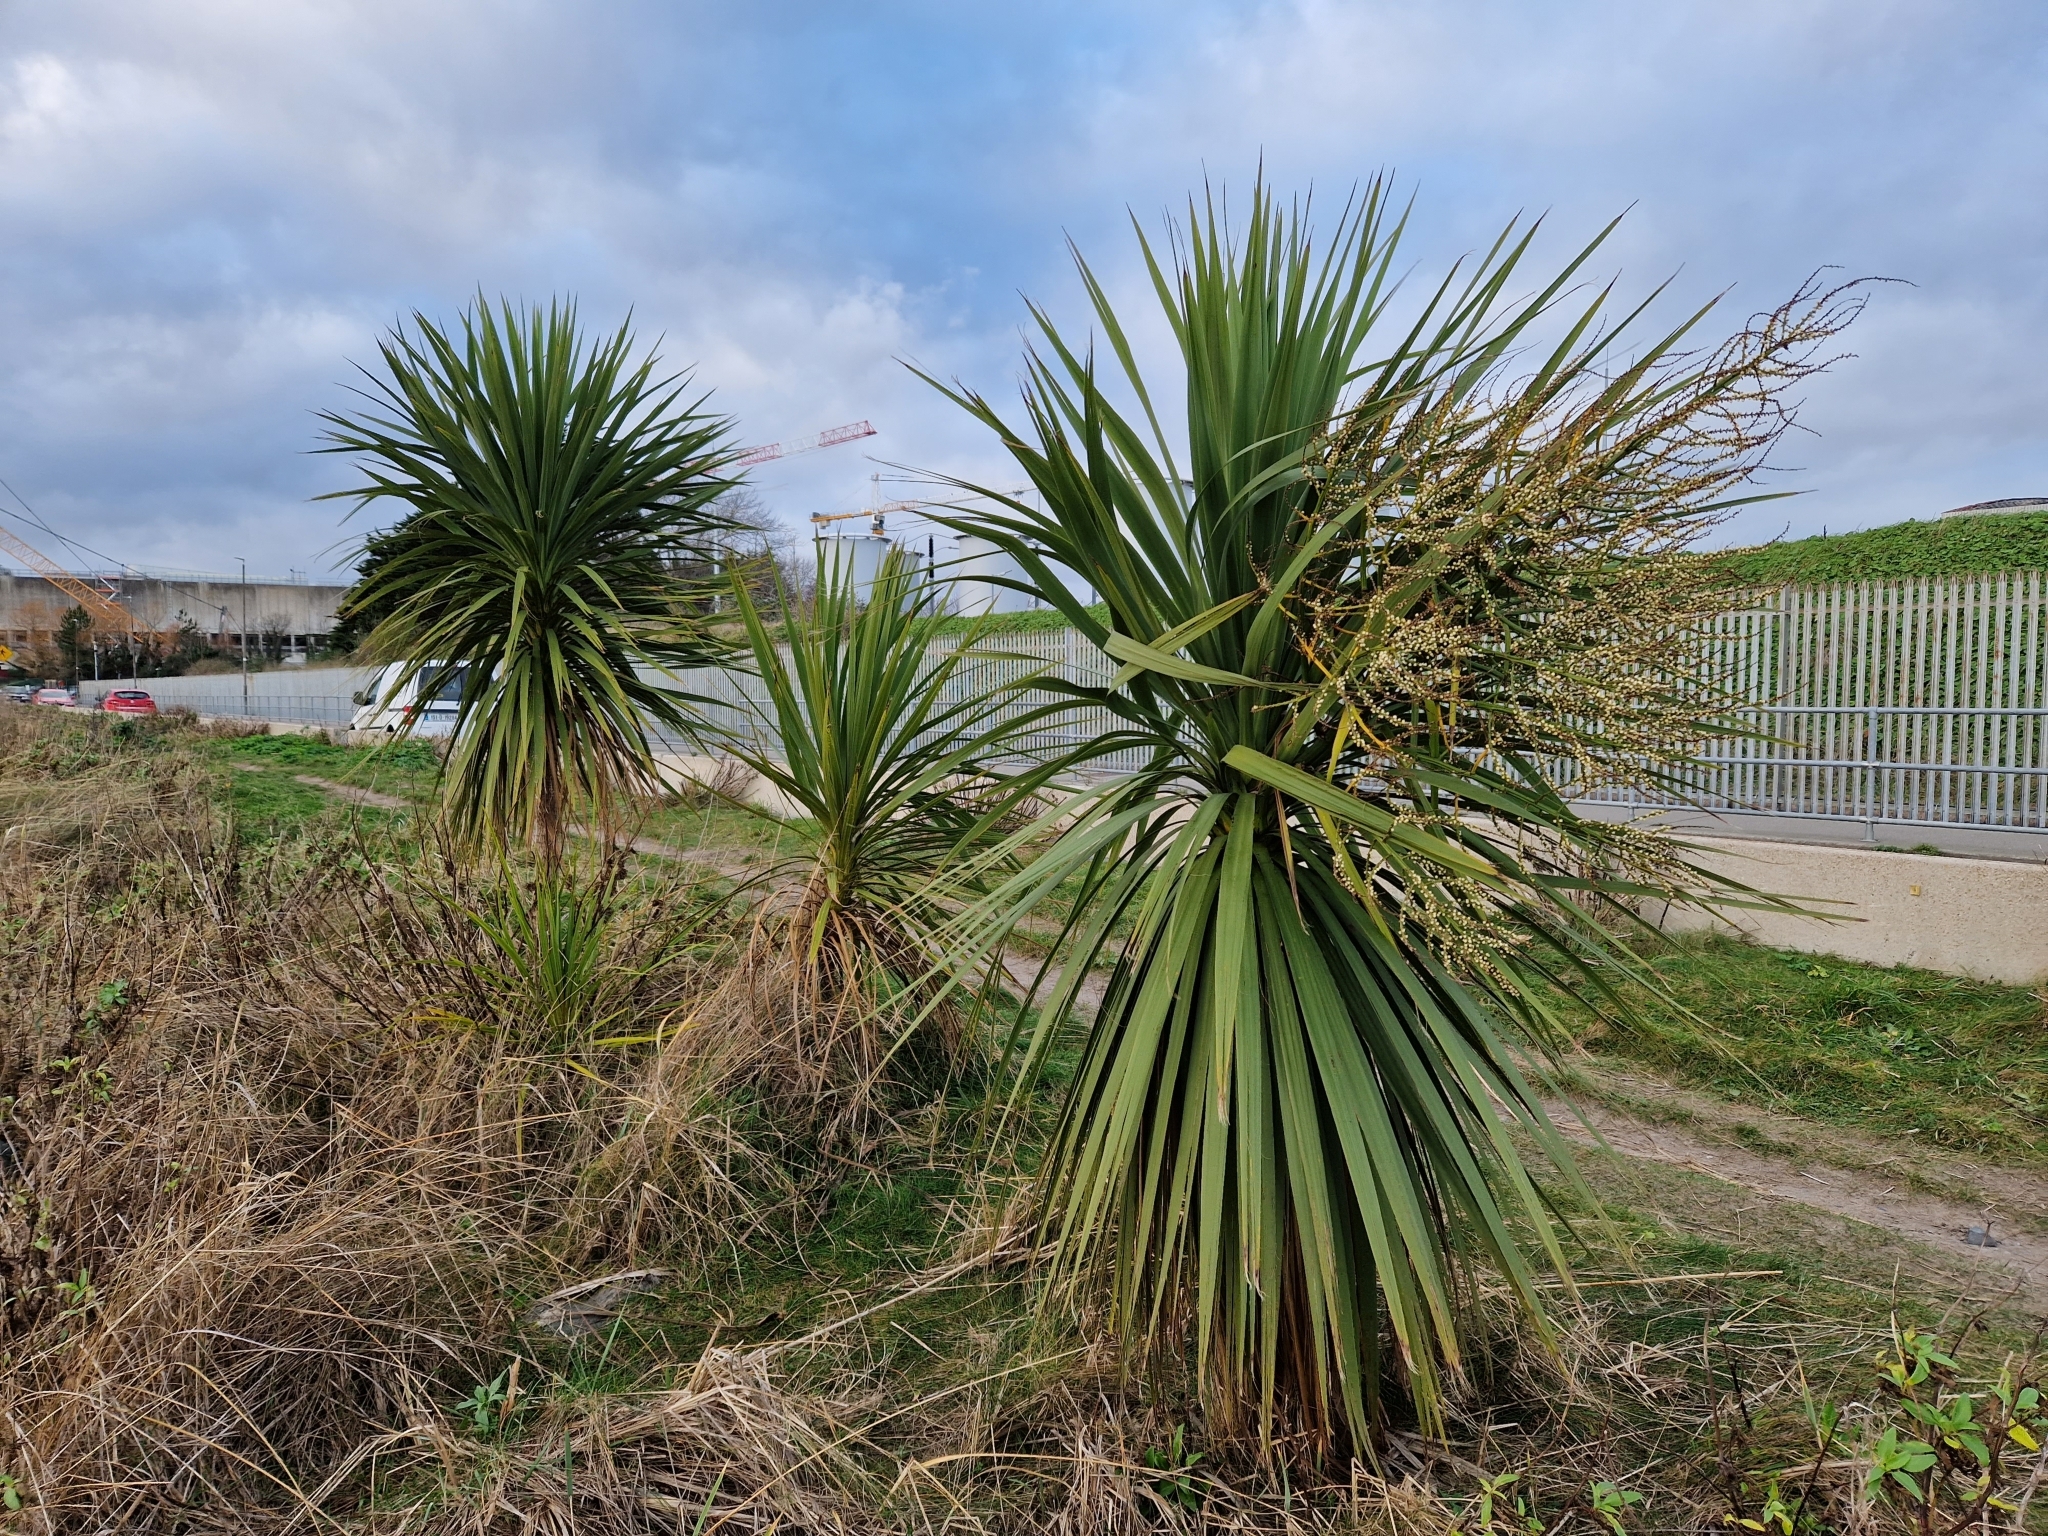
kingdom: Plantae
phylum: Tracheophyta
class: Liliopsida
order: Asparagales
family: Asparagaceae
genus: Cordyline
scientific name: Cordyline australis
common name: Cabbage-palm
